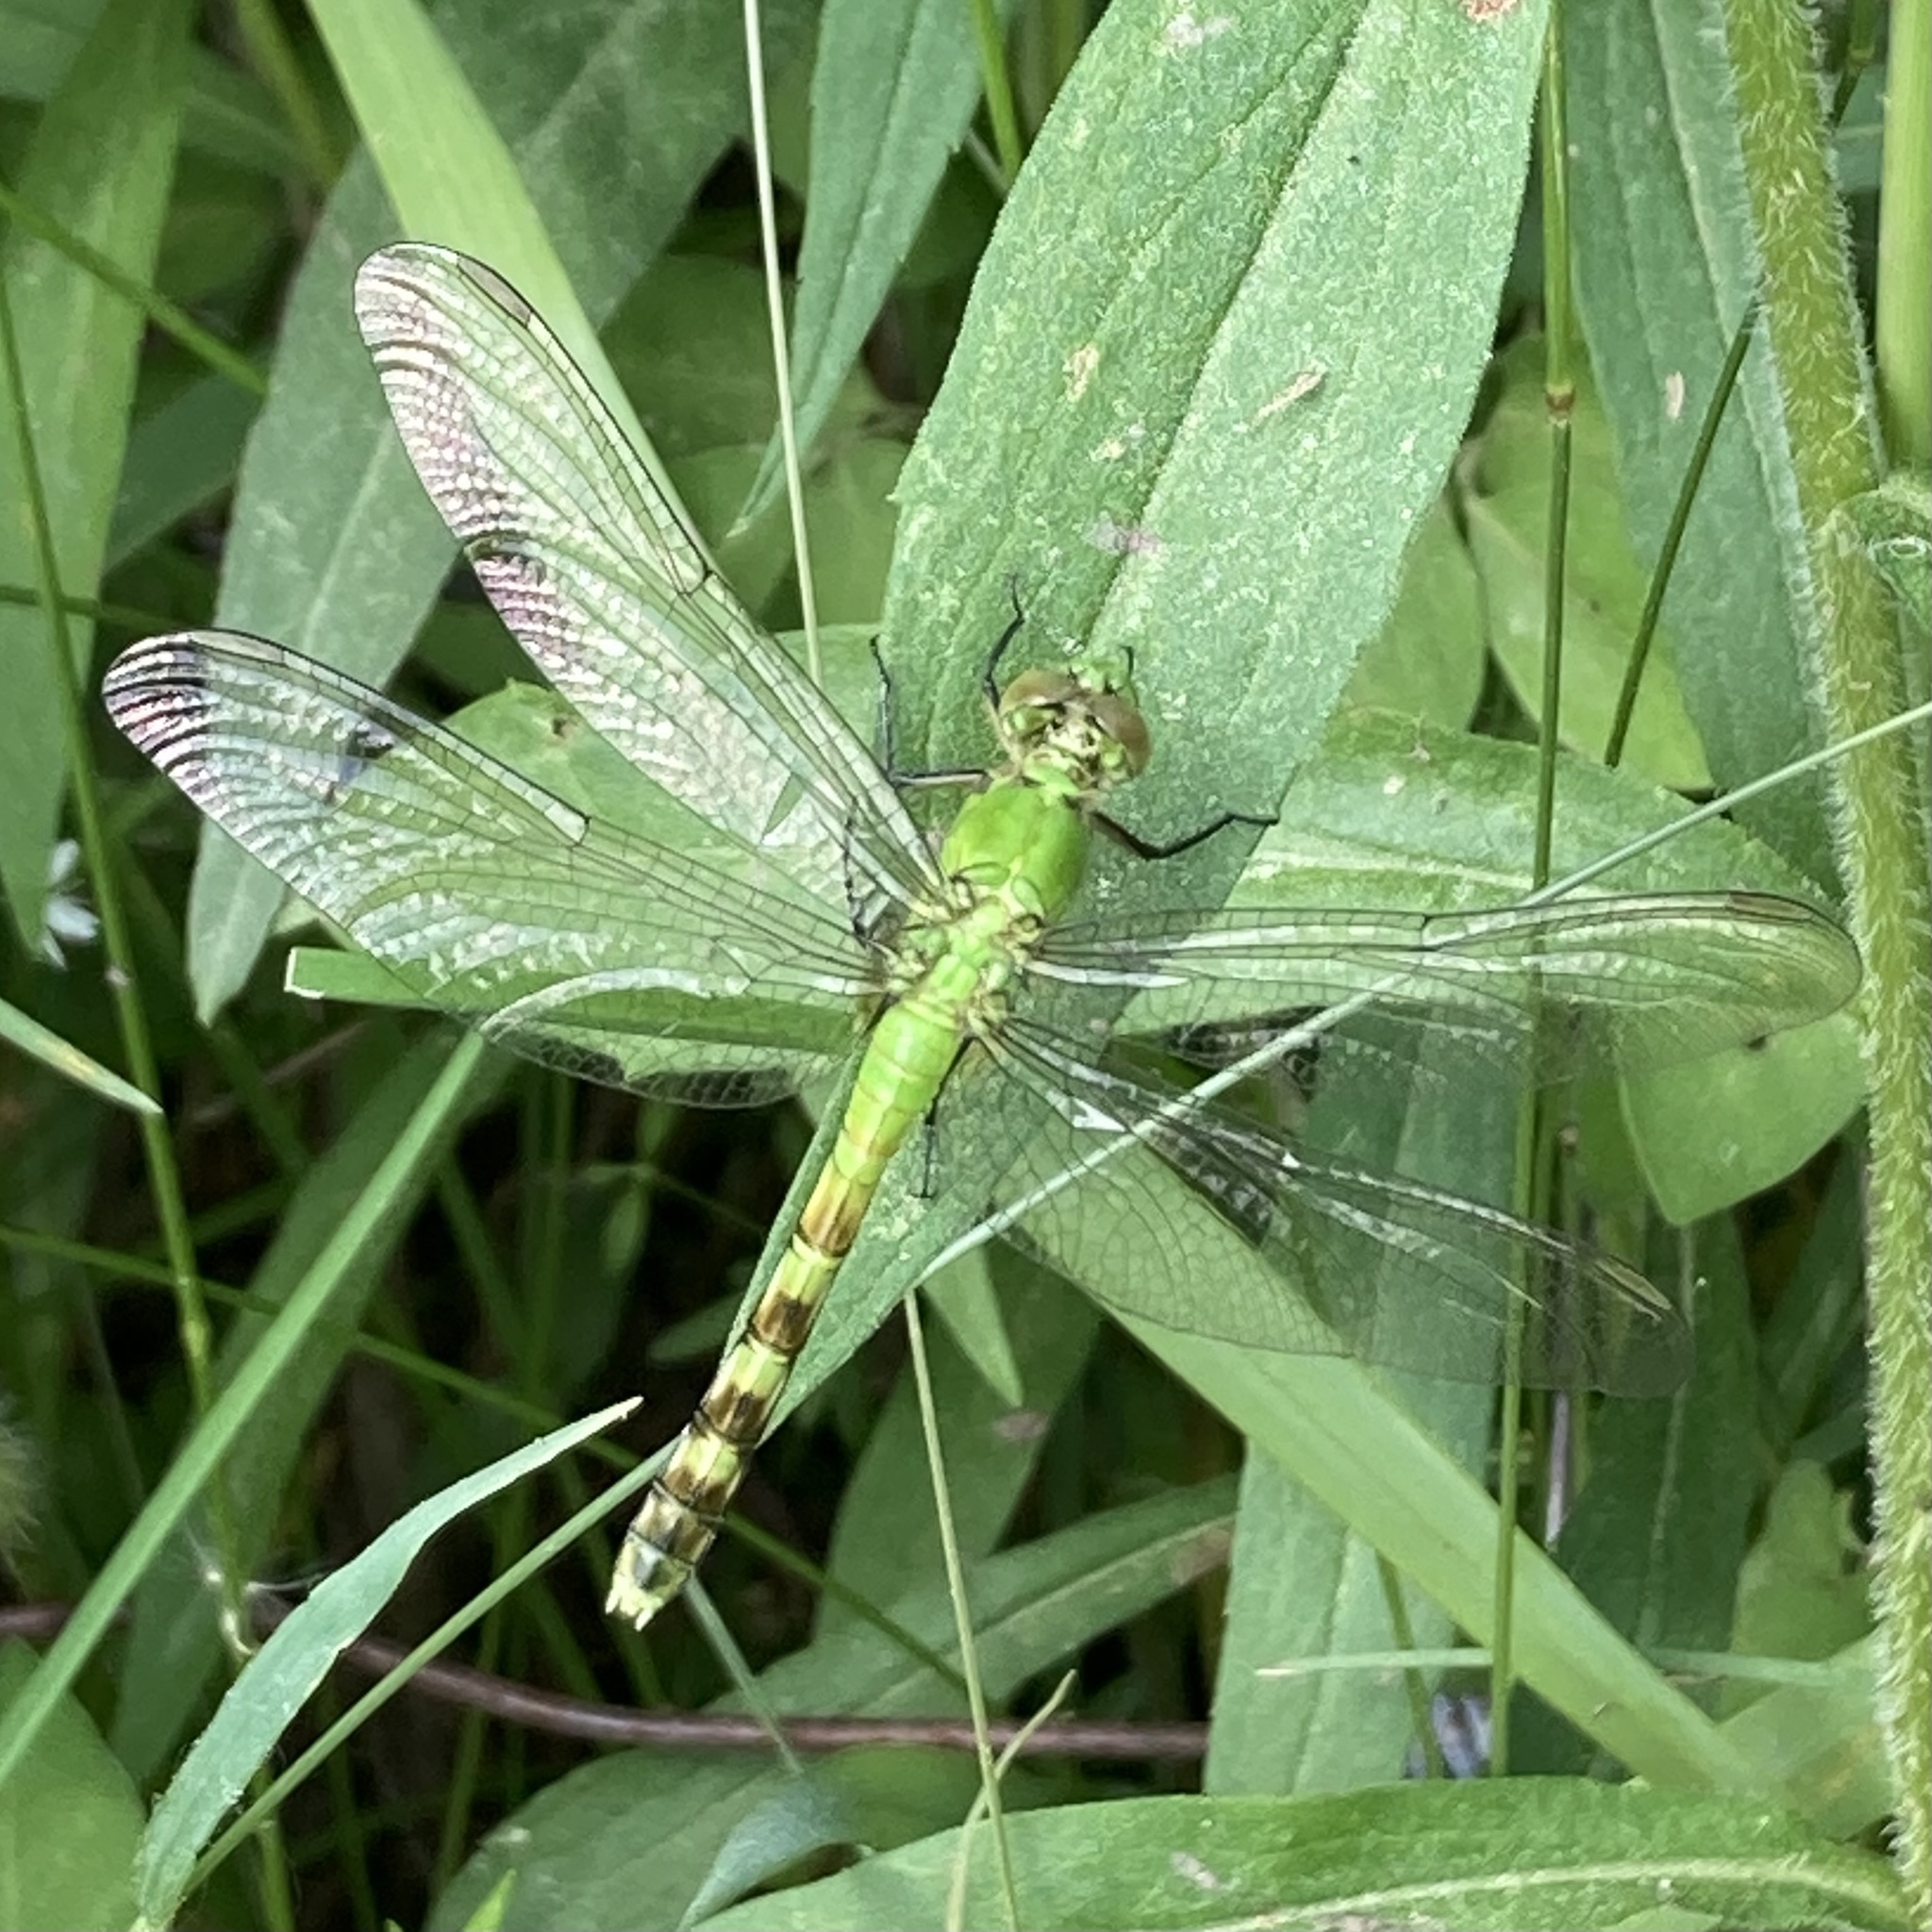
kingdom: Animalia
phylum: Arthropoda
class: Insecta
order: Odonata
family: Libellulidae
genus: Erythemis
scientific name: Erythemis simplicicollis
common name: Eastern pondhawk
